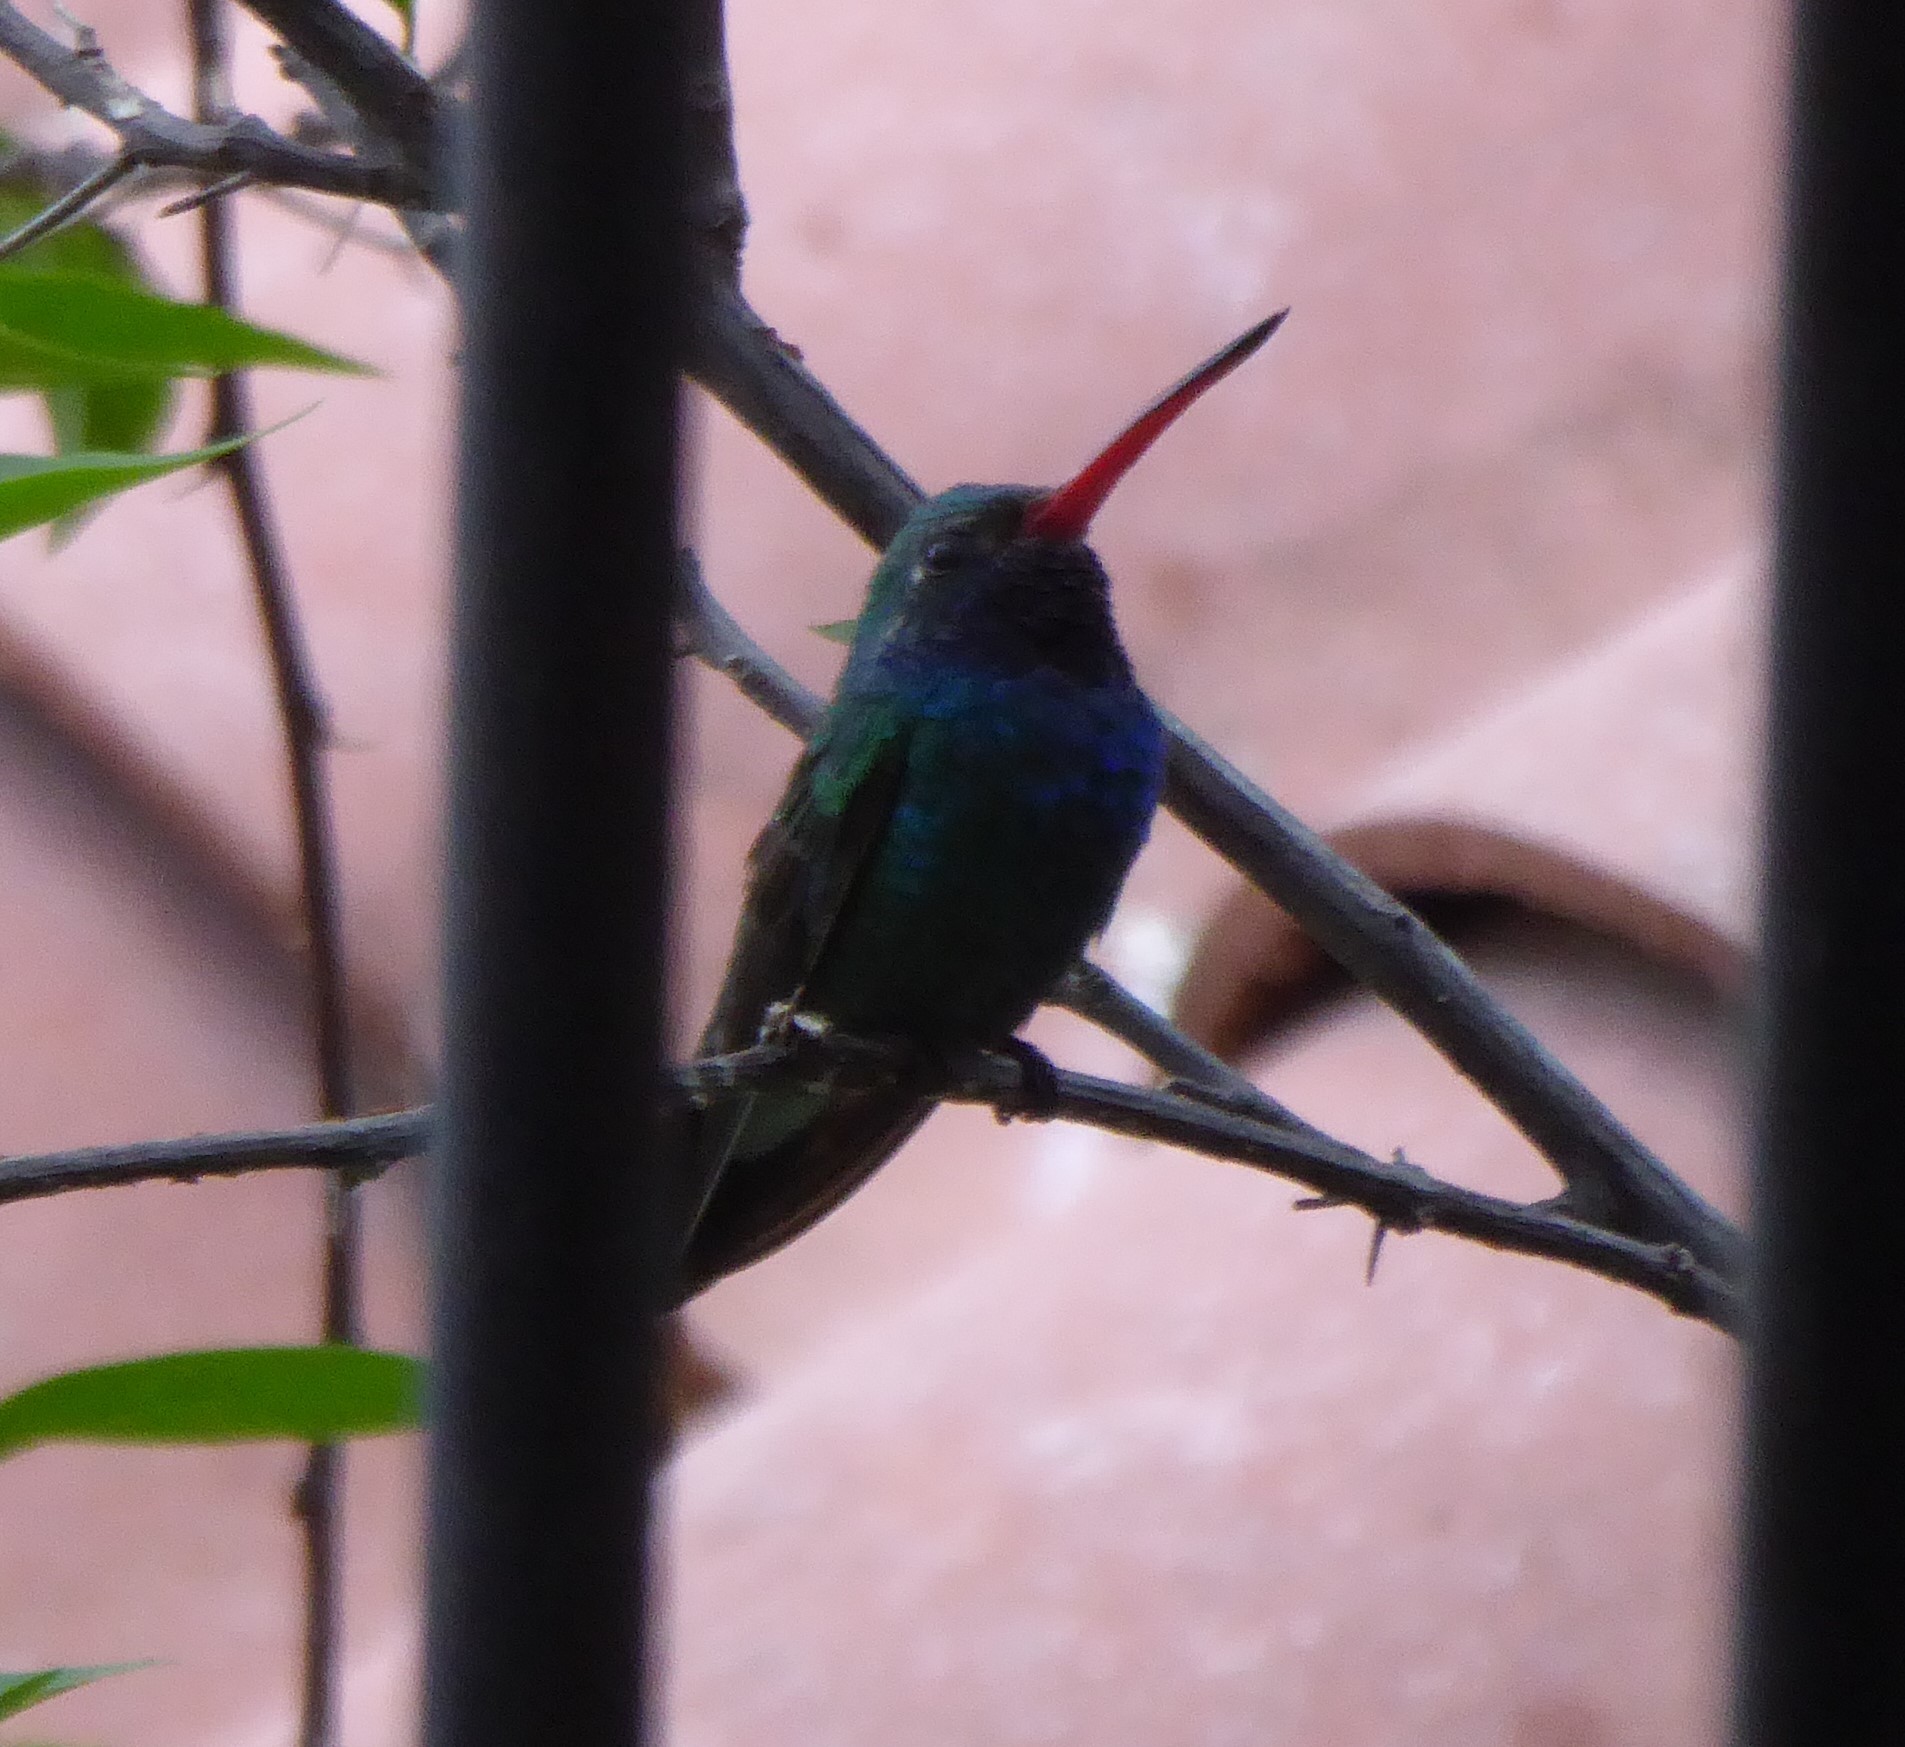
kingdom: Animalia
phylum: Chordata
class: Aves
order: Apodiformes
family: Trochilidae
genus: Cynanthus
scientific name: Cynanthus latirostris
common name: Broad-billed hummingbird
